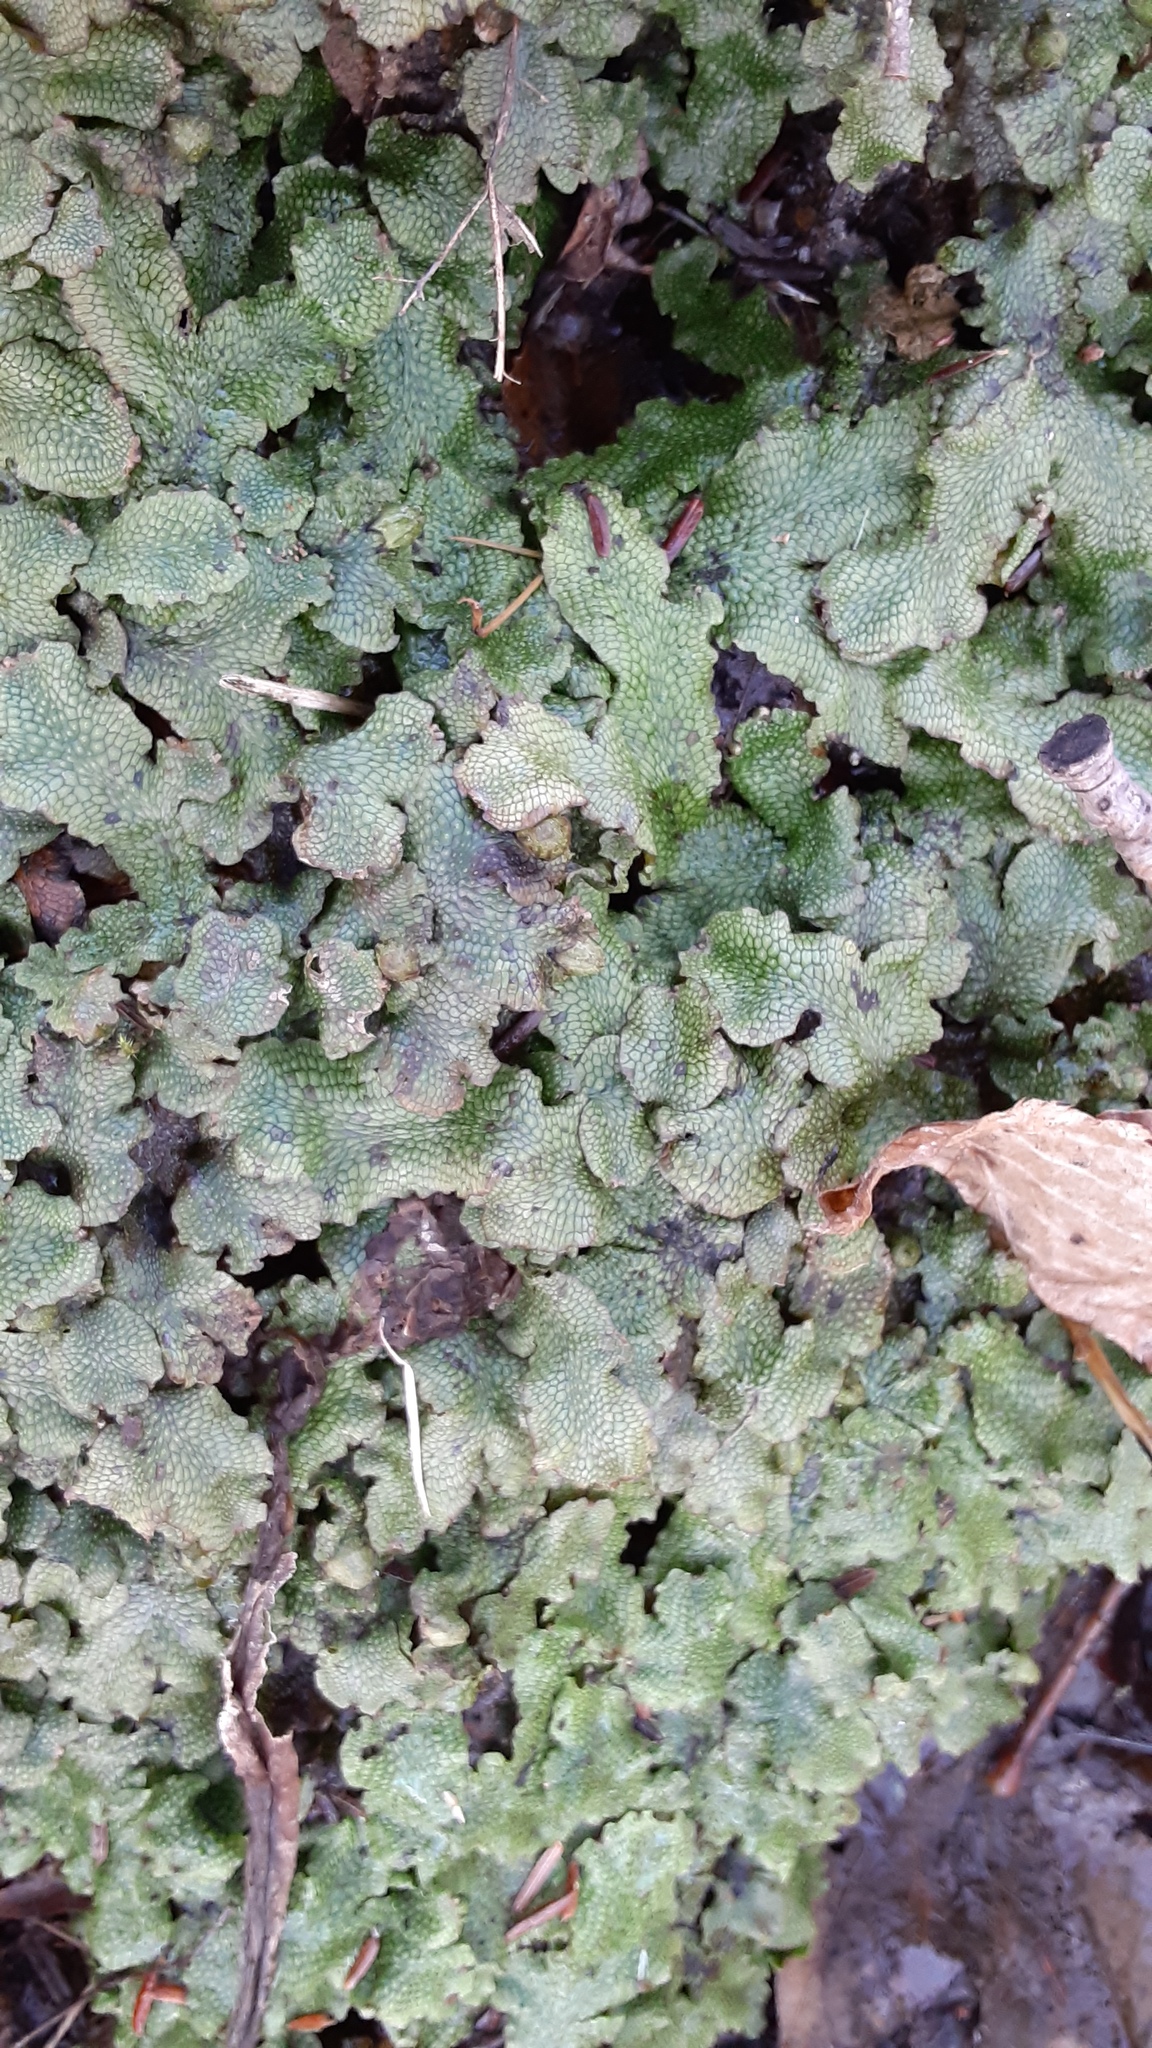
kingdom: Plantae
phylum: Marchantiophyta
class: Marchantiopsida
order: Marchantiales
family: Conocephalaceae
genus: Conocephalum
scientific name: Conocephalum salebrosum
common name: Cat-tongue liverwort
